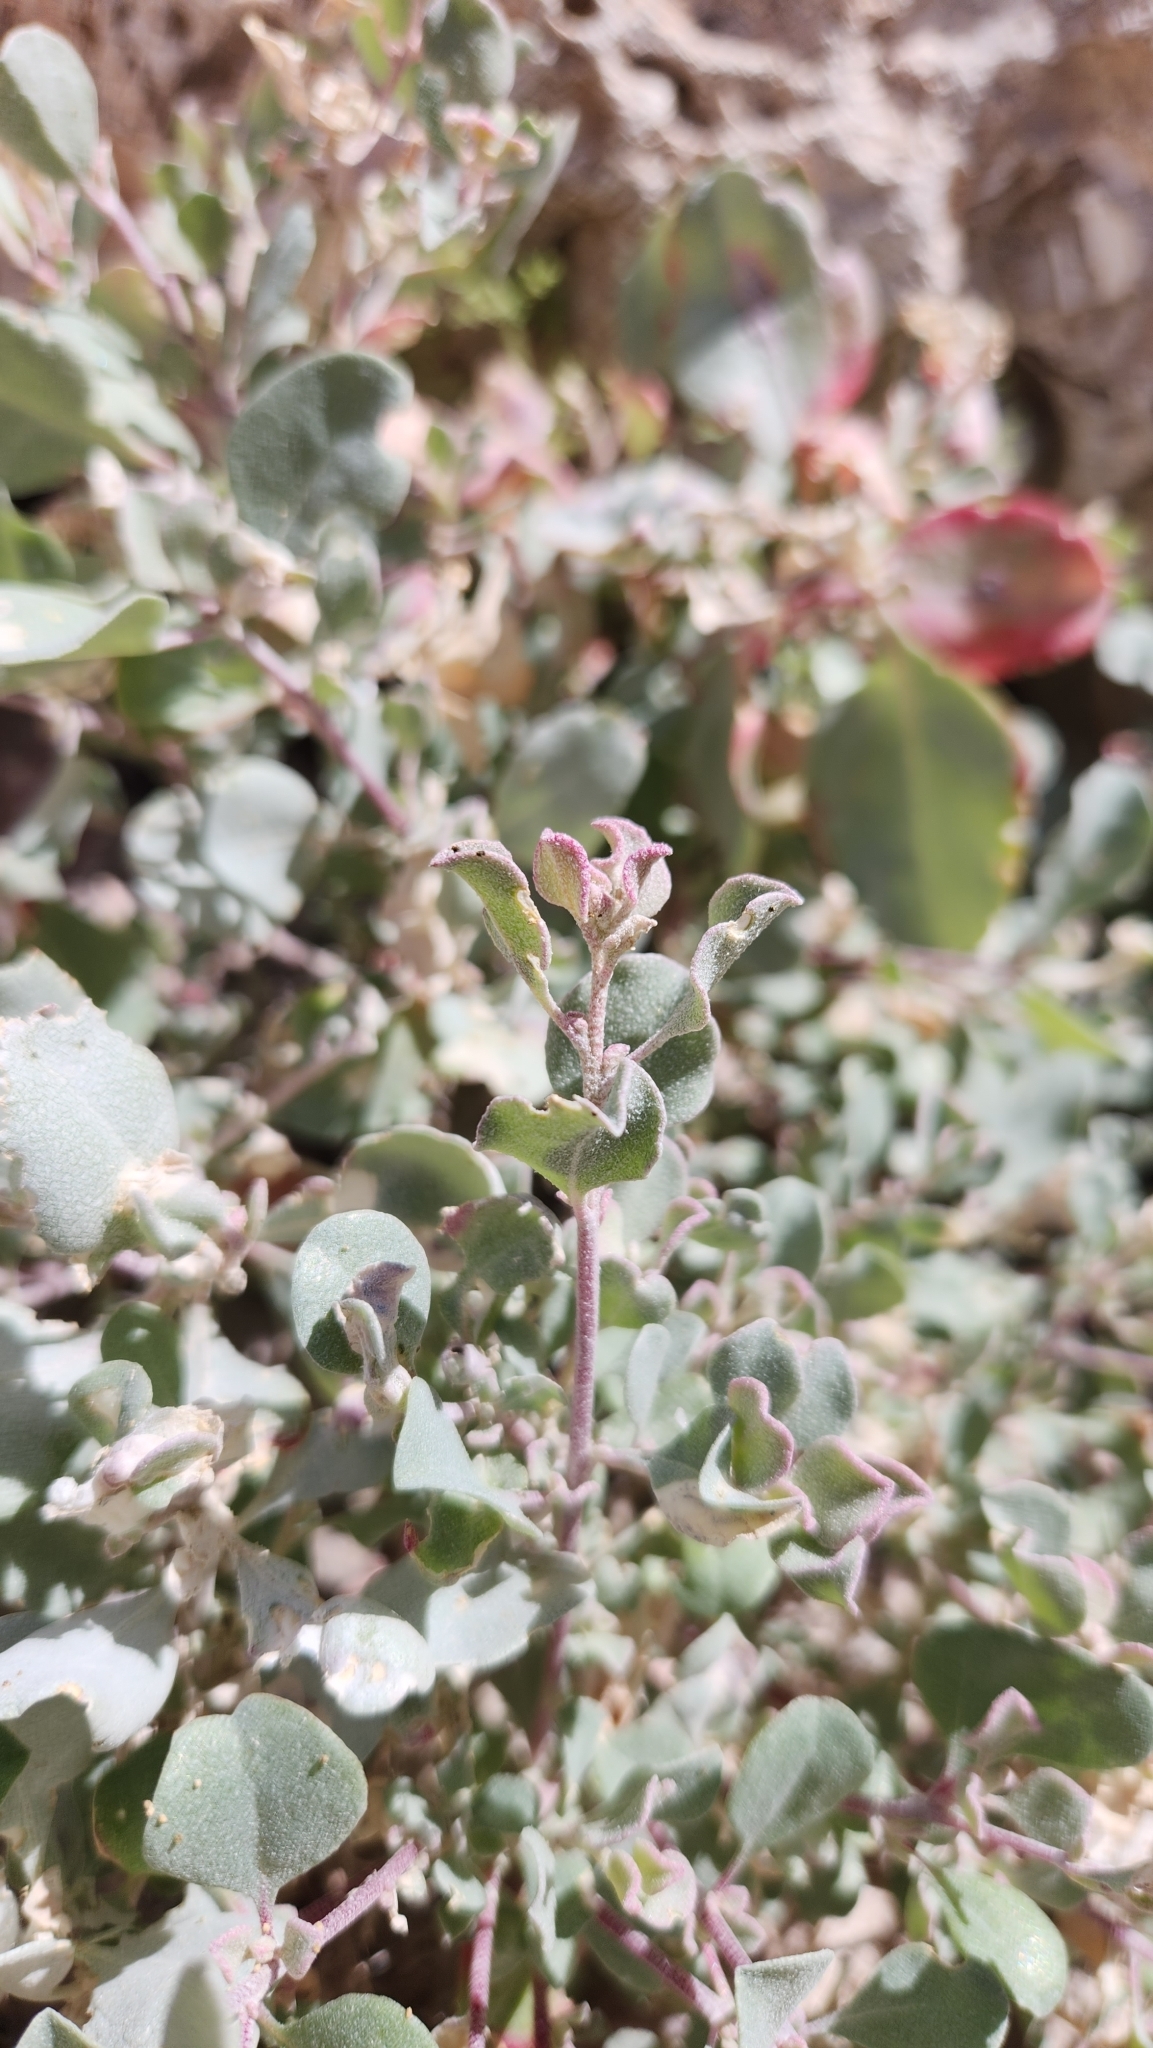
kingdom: Plantae
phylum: Tracheophyta
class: Magnoliopsida
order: Caryophyllales
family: Amaranthaceae
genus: Atriplex
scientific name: Atriplex barclayana
